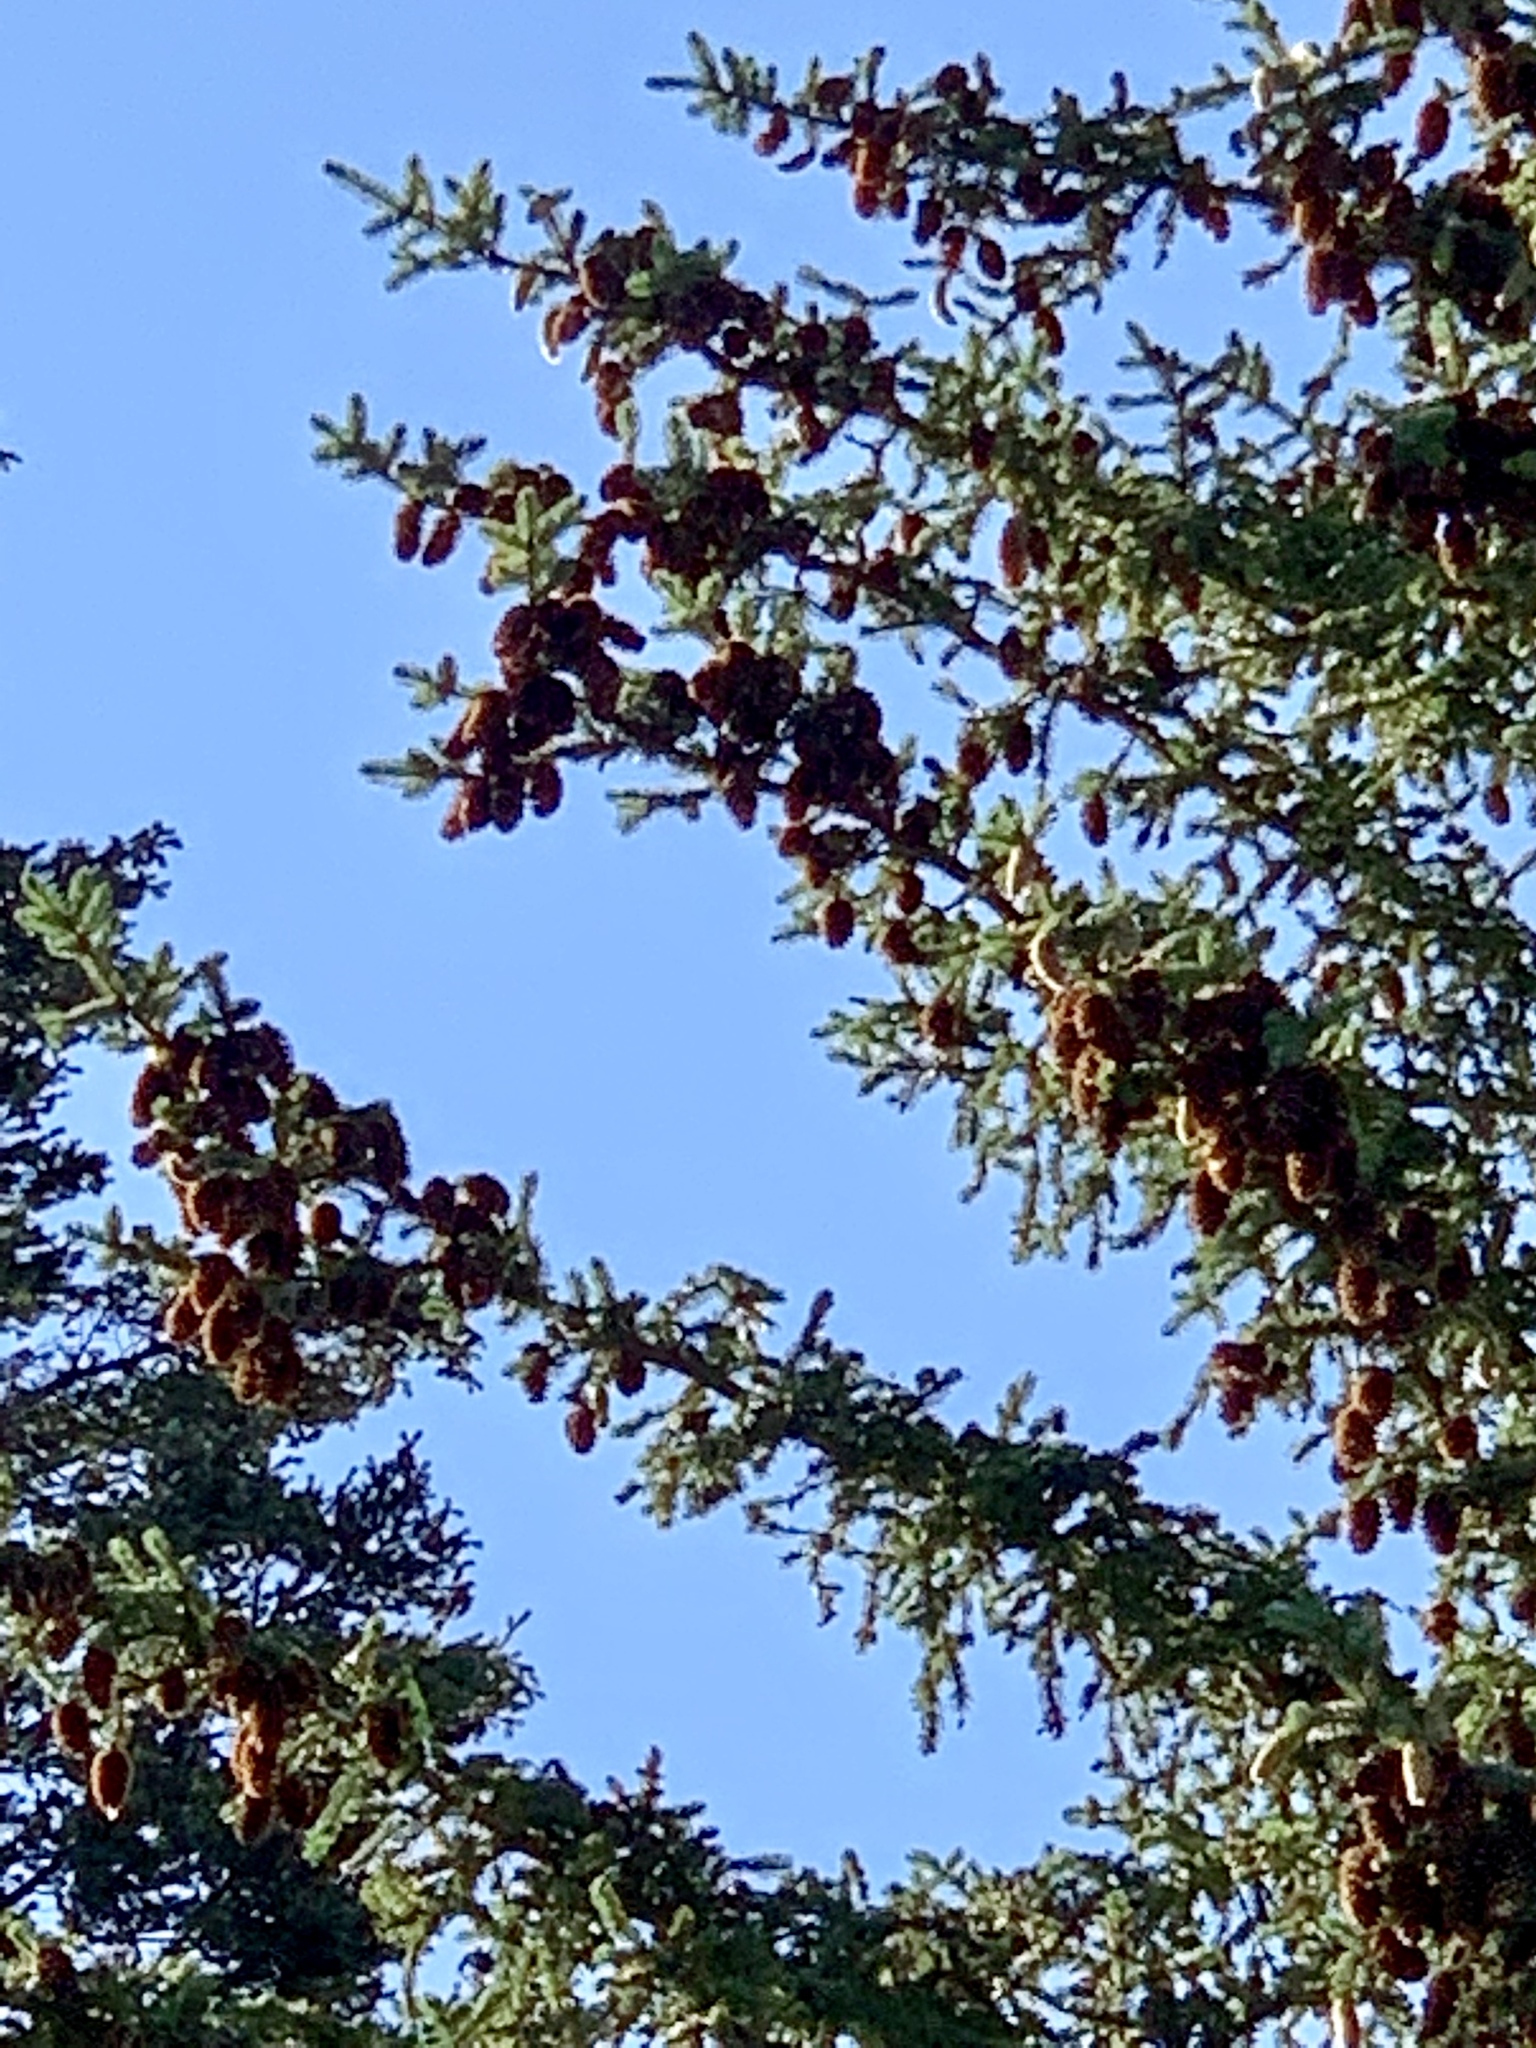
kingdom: Plantae
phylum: Tracheophyta
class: Pinopsida
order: Pinales
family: Pinaceae
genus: Picea
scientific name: Picea engelmannii
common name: Engelmann spruce
